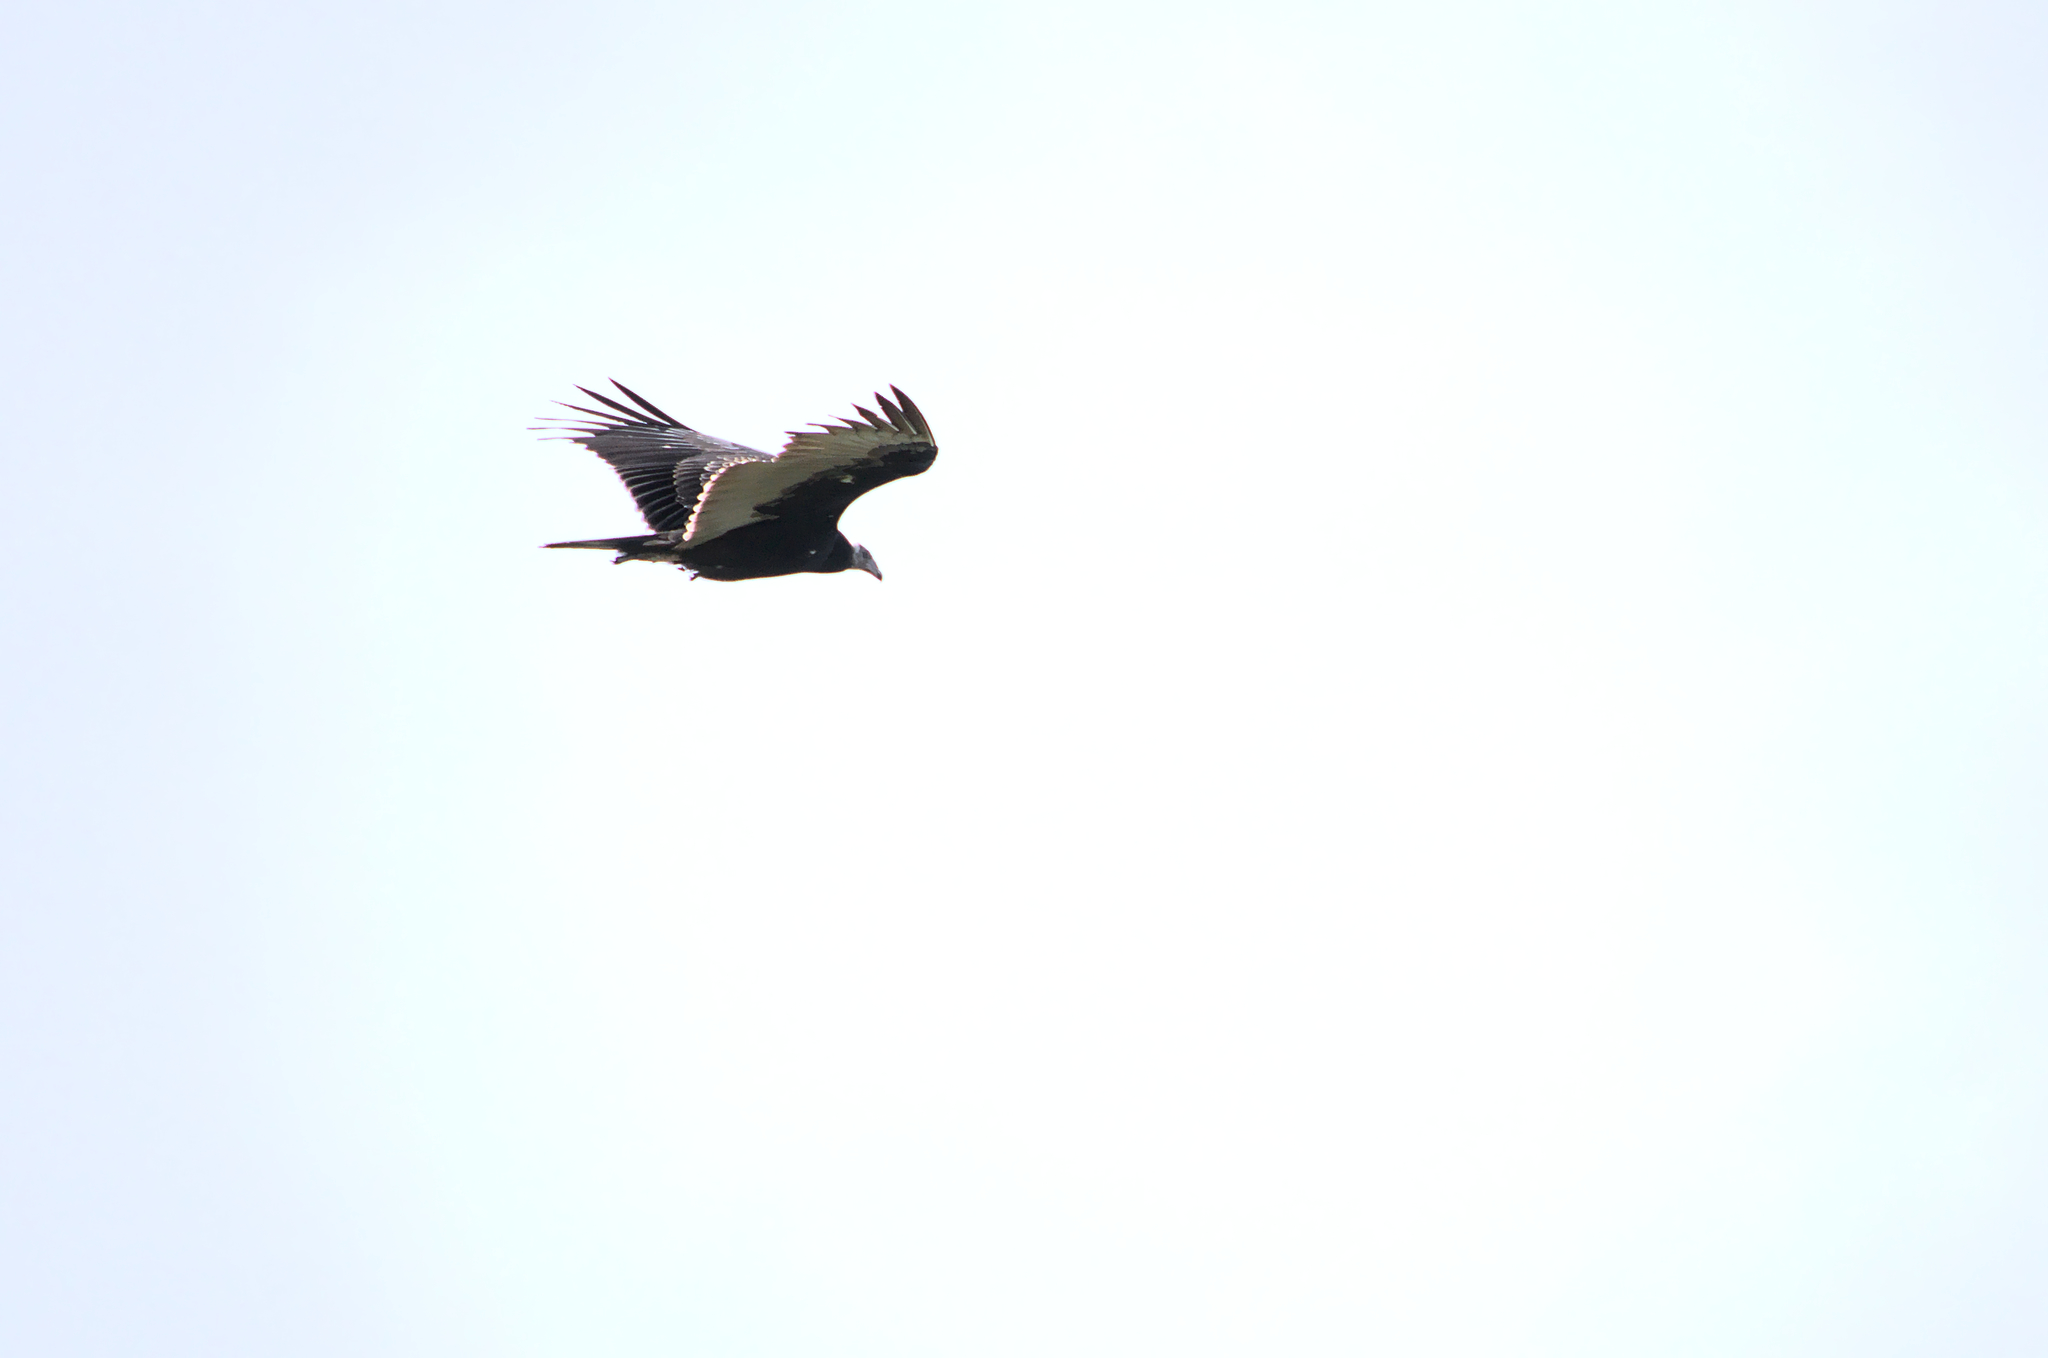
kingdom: Animalia
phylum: Chordata
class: Aves
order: Accipitriformes
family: Cathartidae
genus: Cathartes
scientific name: Cathartes aura
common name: Turkey vulture
